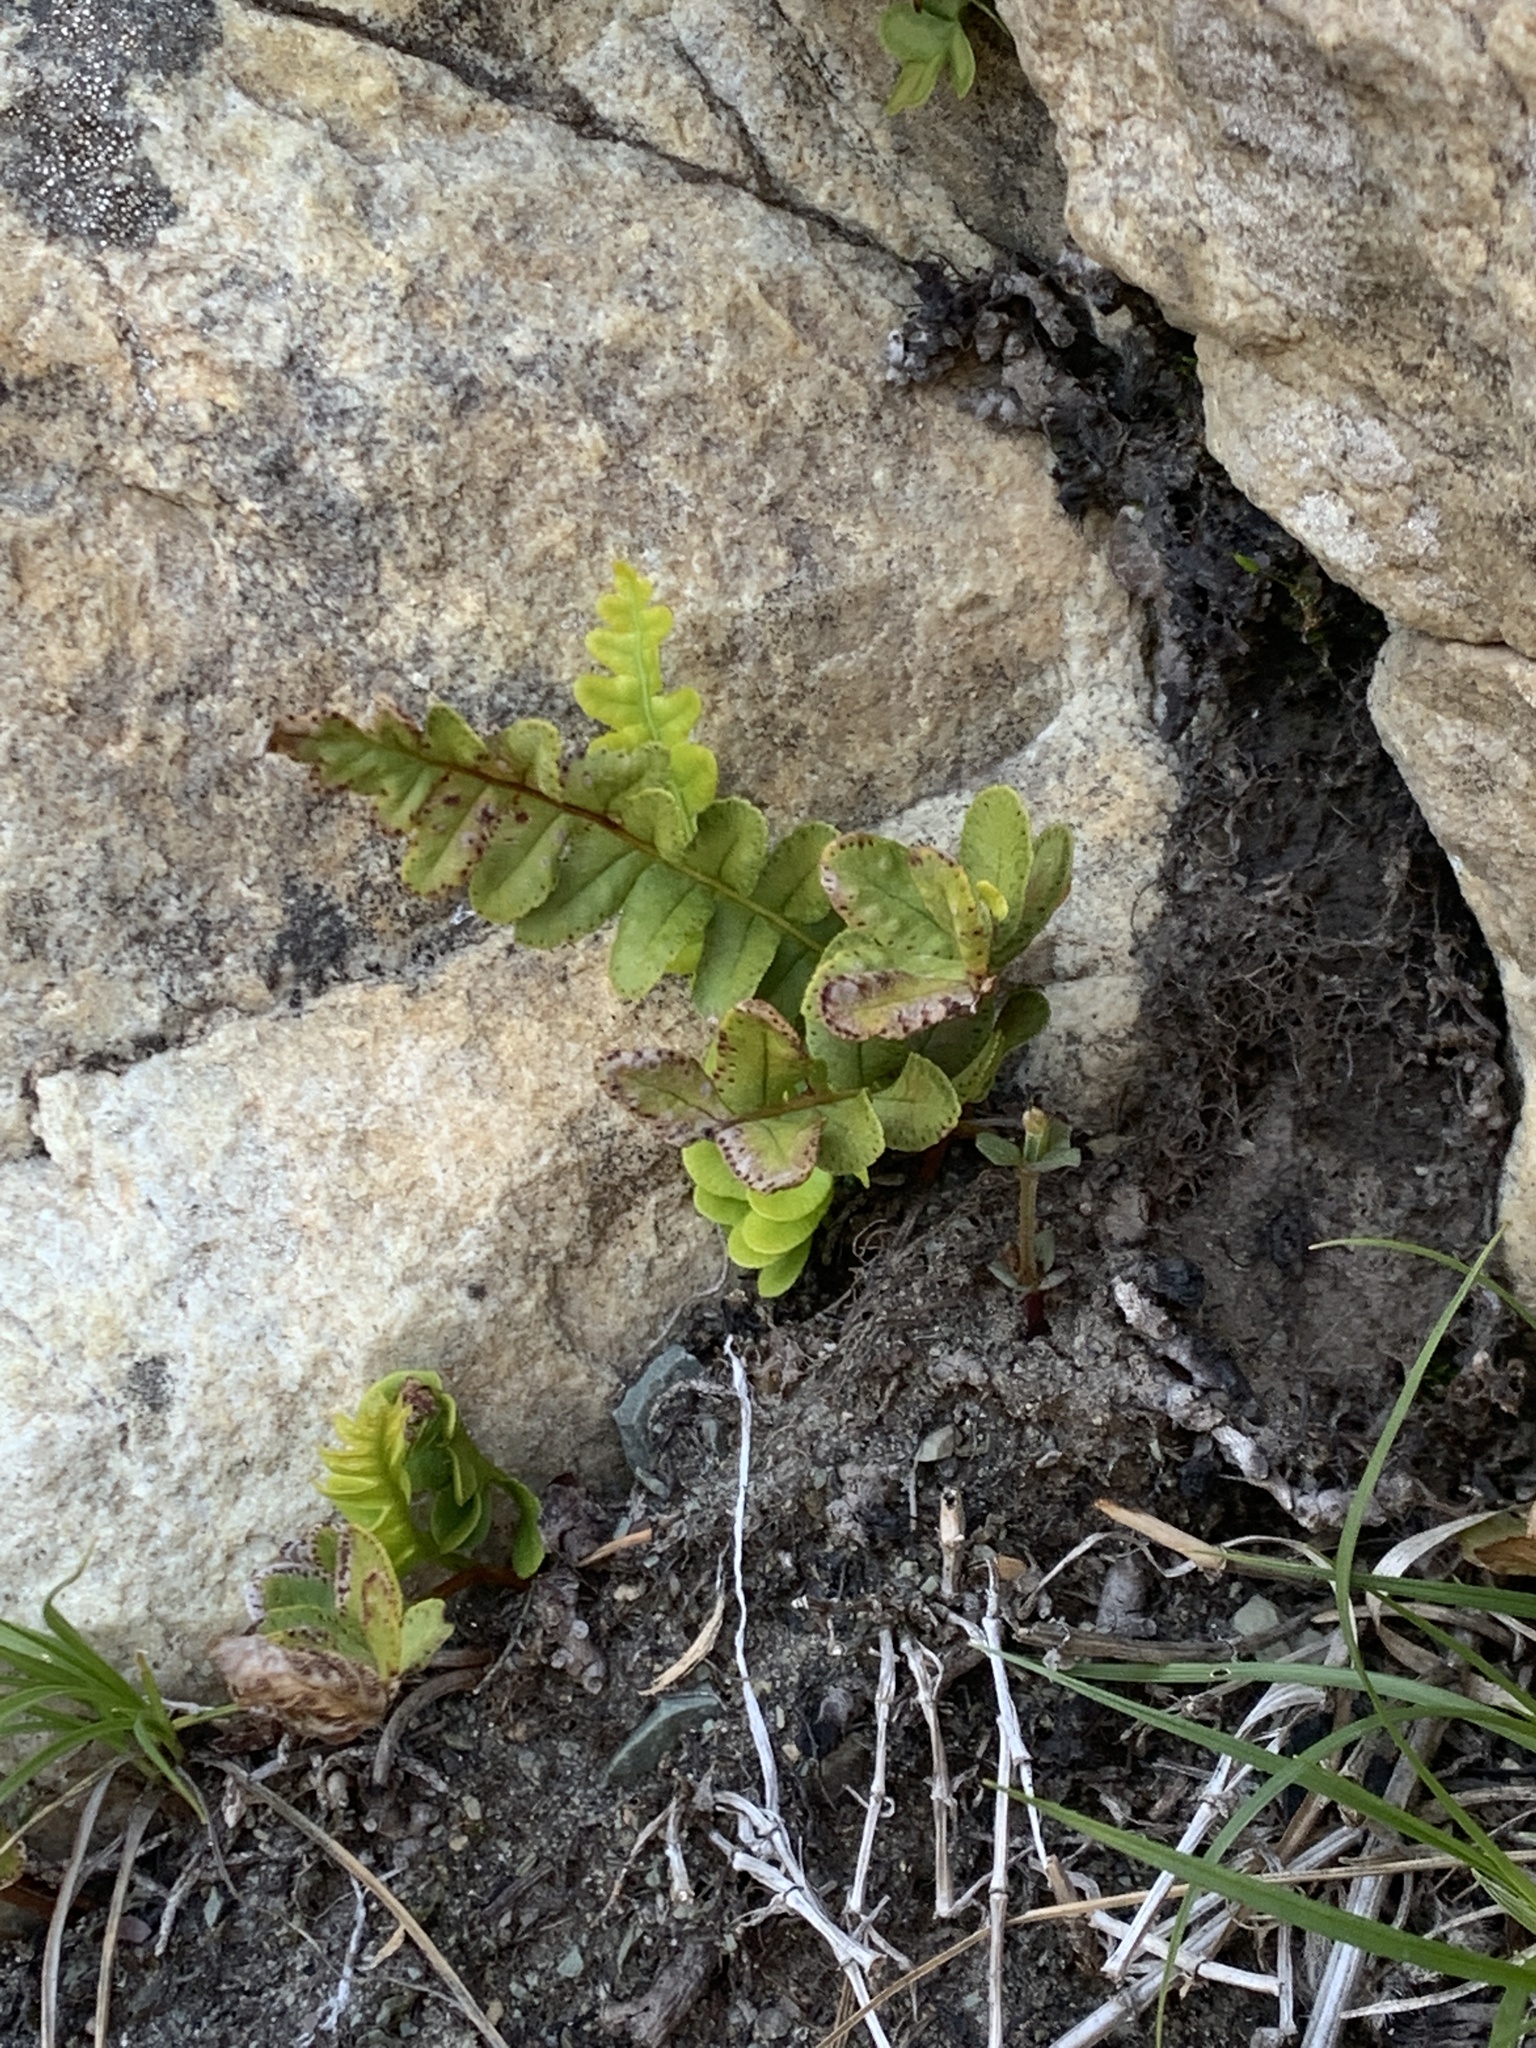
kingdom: Plantae
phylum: Tracheophyta
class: Polypodiopsida
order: Polypodiales
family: Polypodiaceae
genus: Polypodium
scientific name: Polypodium hesperium
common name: Western polypody
